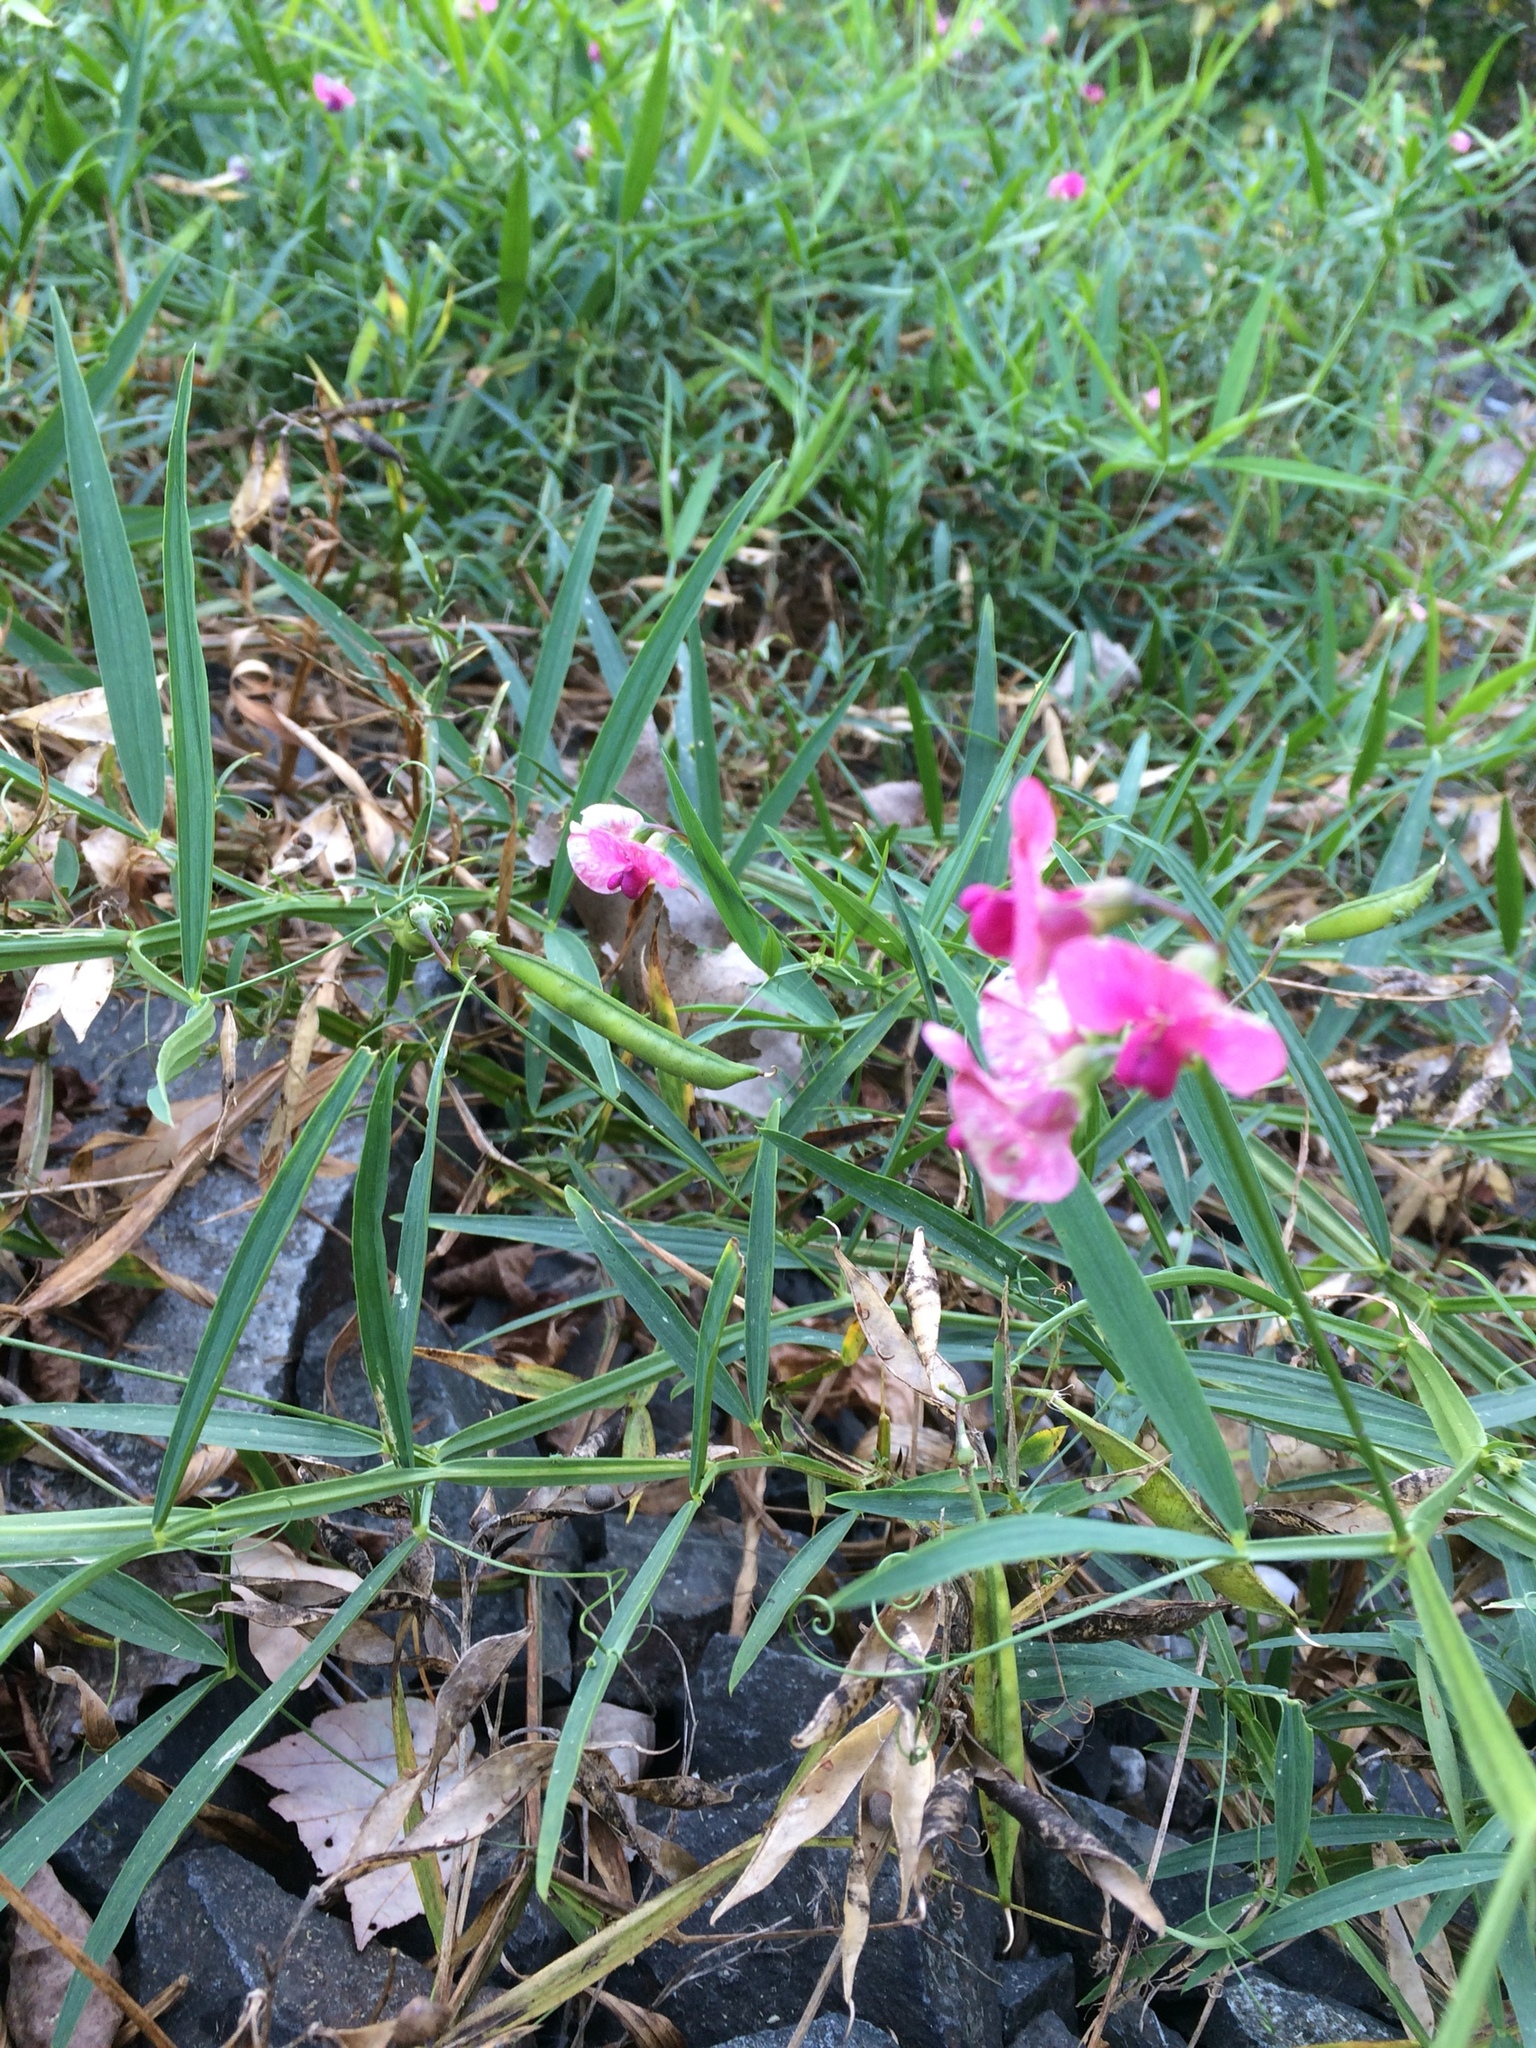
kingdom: Plantae
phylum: Tracheophyta
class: Magnoliopsida
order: Fabales
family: Fabaceae
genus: Lathyrus
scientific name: Lathyrus sylvestris
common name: Flat pea
